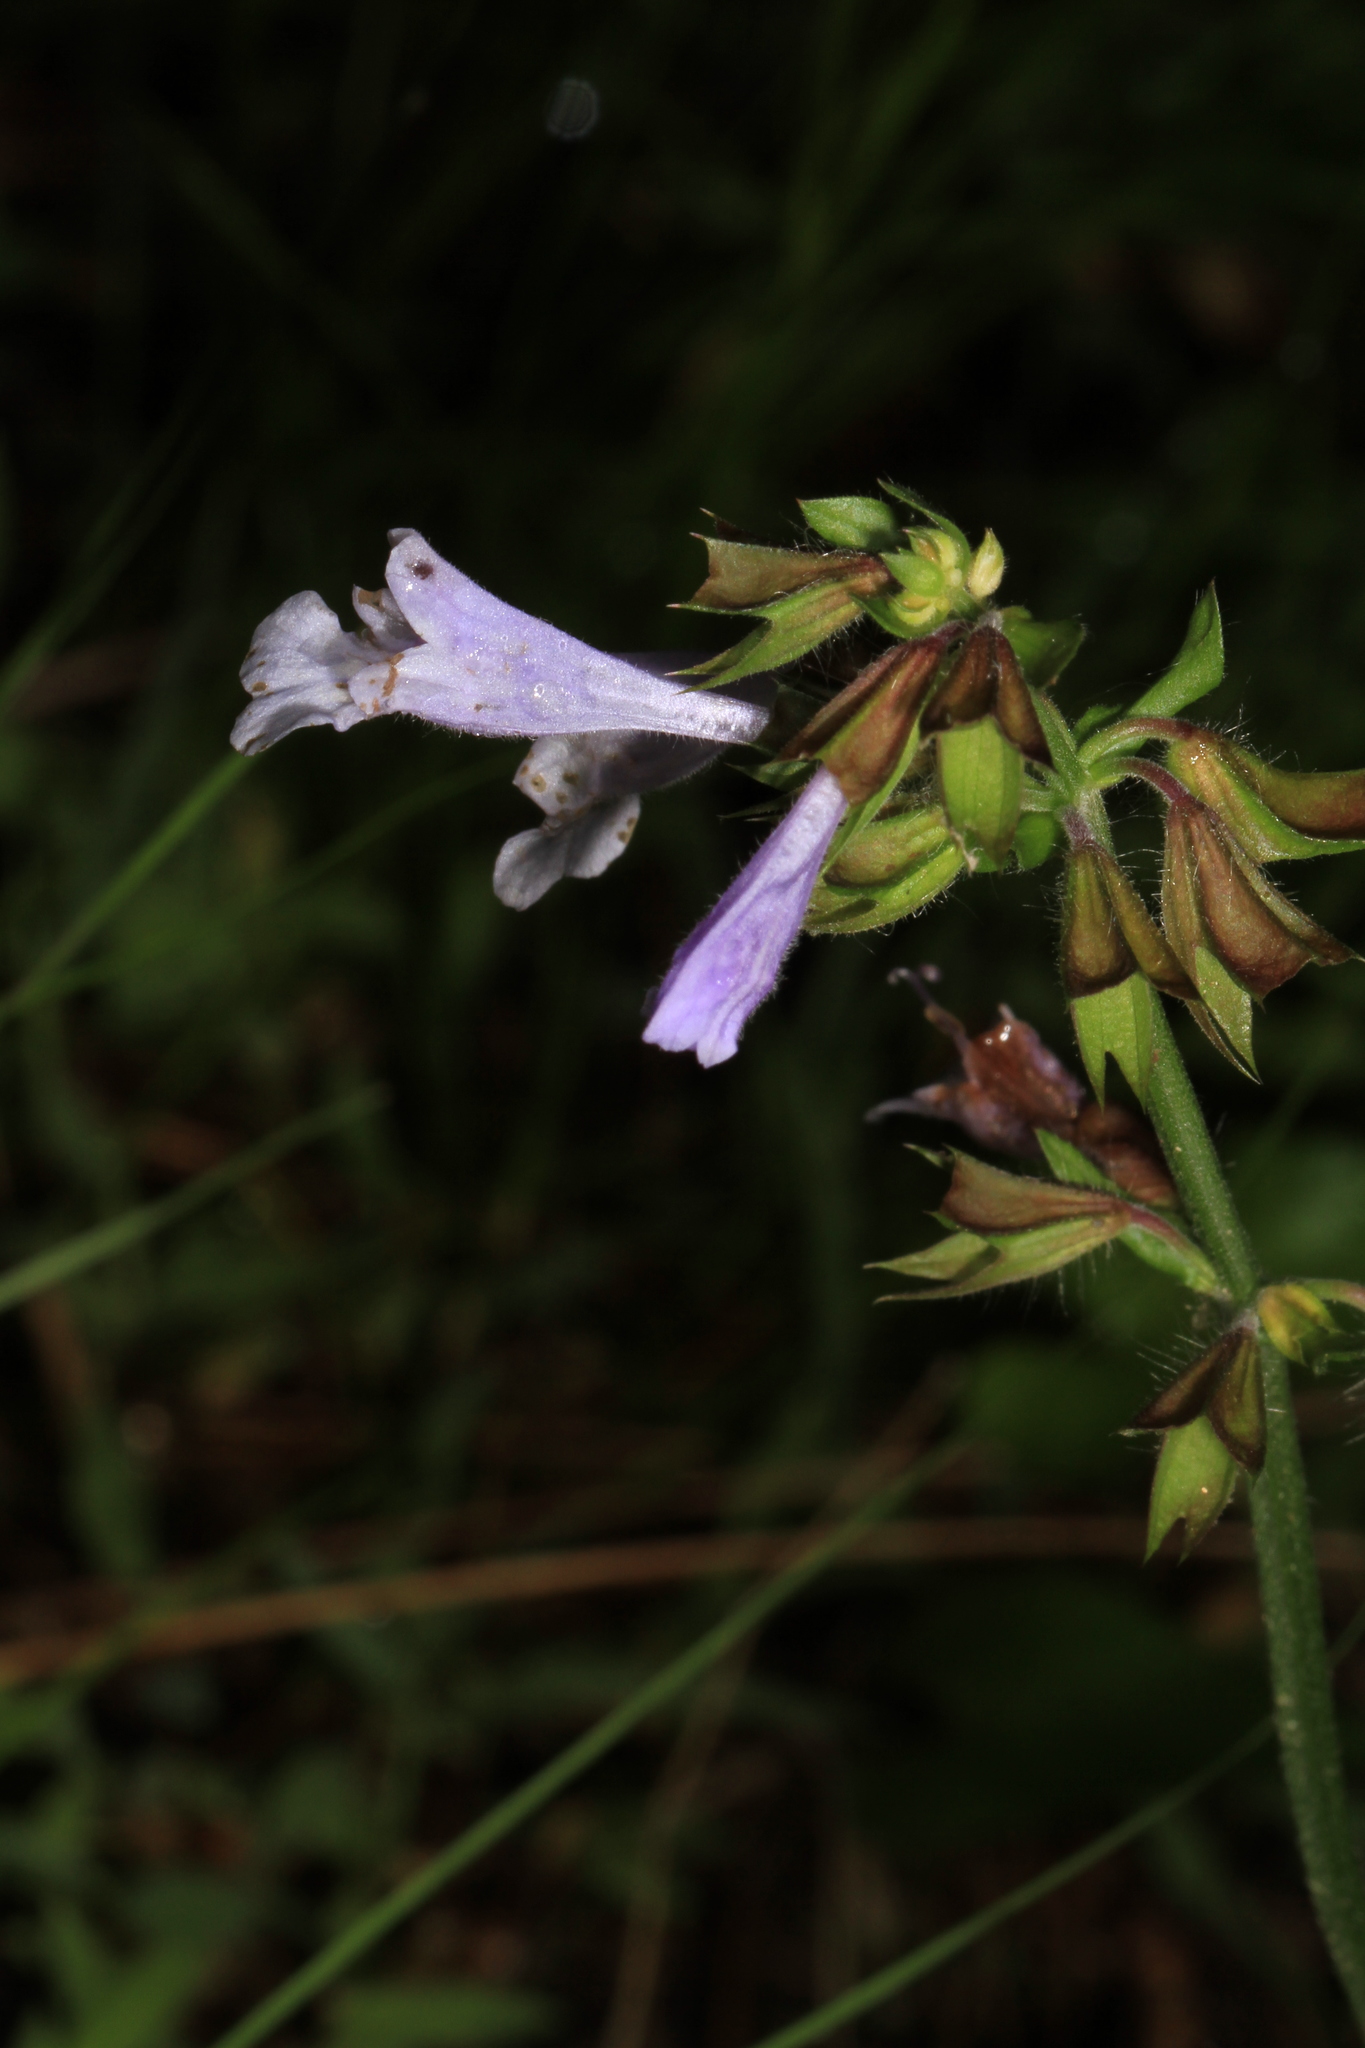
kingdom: Plantae
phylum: Tracheophyta
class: Magnoliopsida
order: Lamiales
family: Lamiaceae
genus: Salvia
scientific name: Salvia lyrata
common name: Cancerweed
